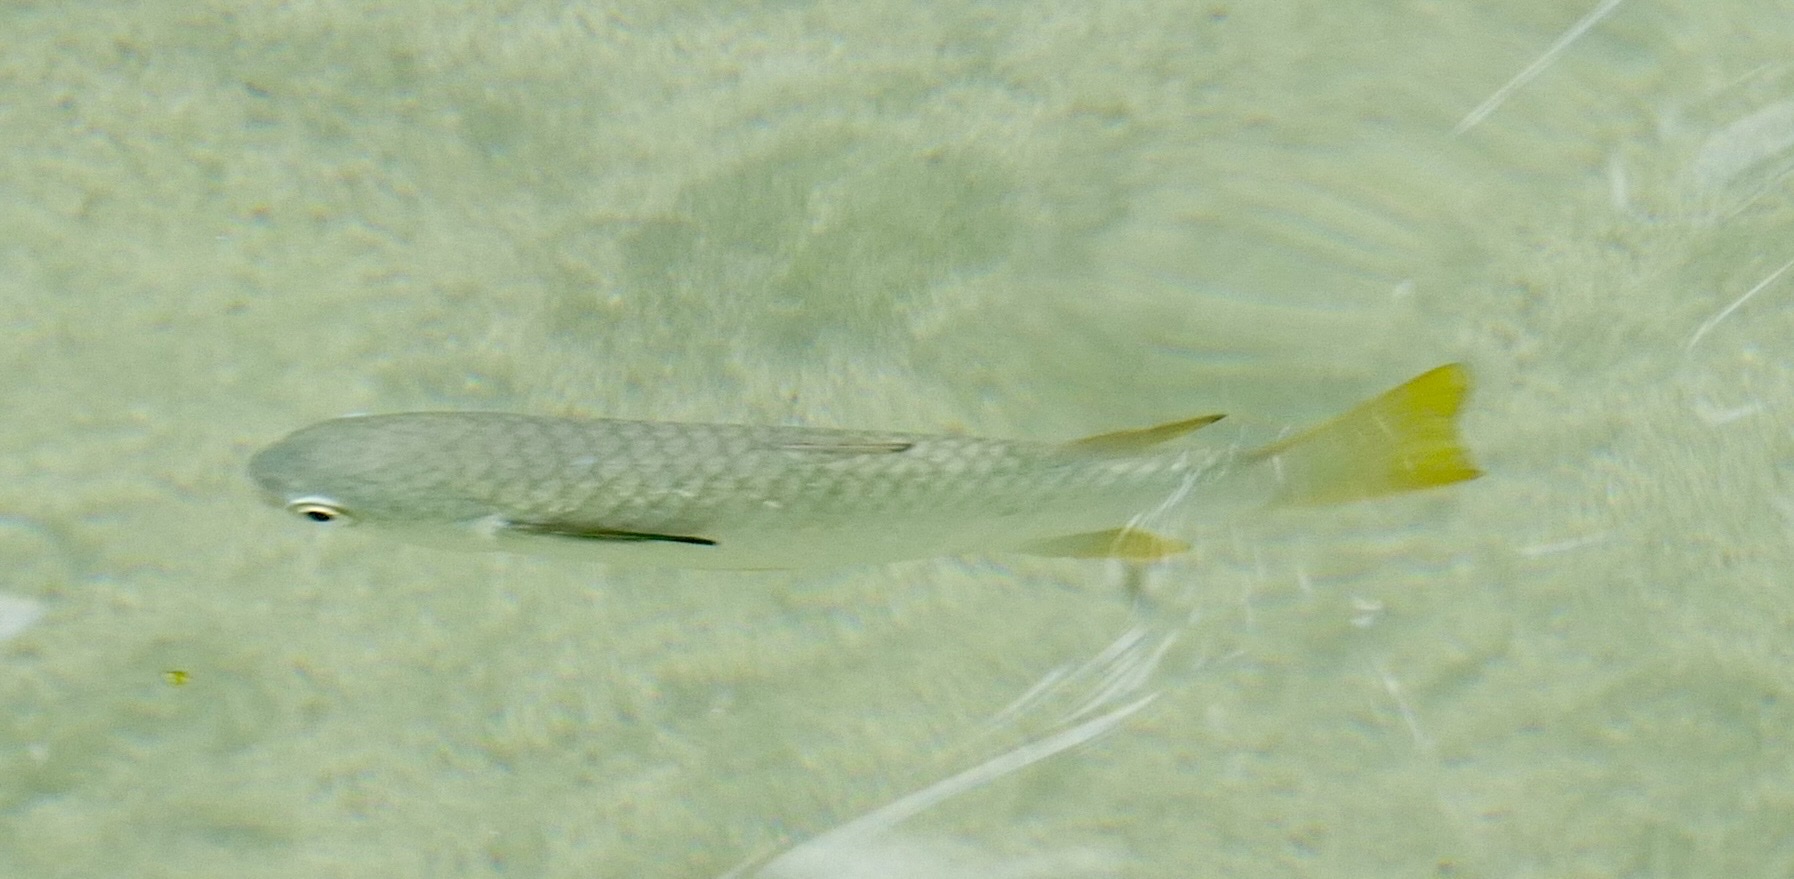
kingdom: Animalia
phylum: Chordata
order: Mugiliformes
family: Mugilidae
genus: Ellochelon
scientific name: Ellochelon vaigiensis
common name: Squaretail mullet
